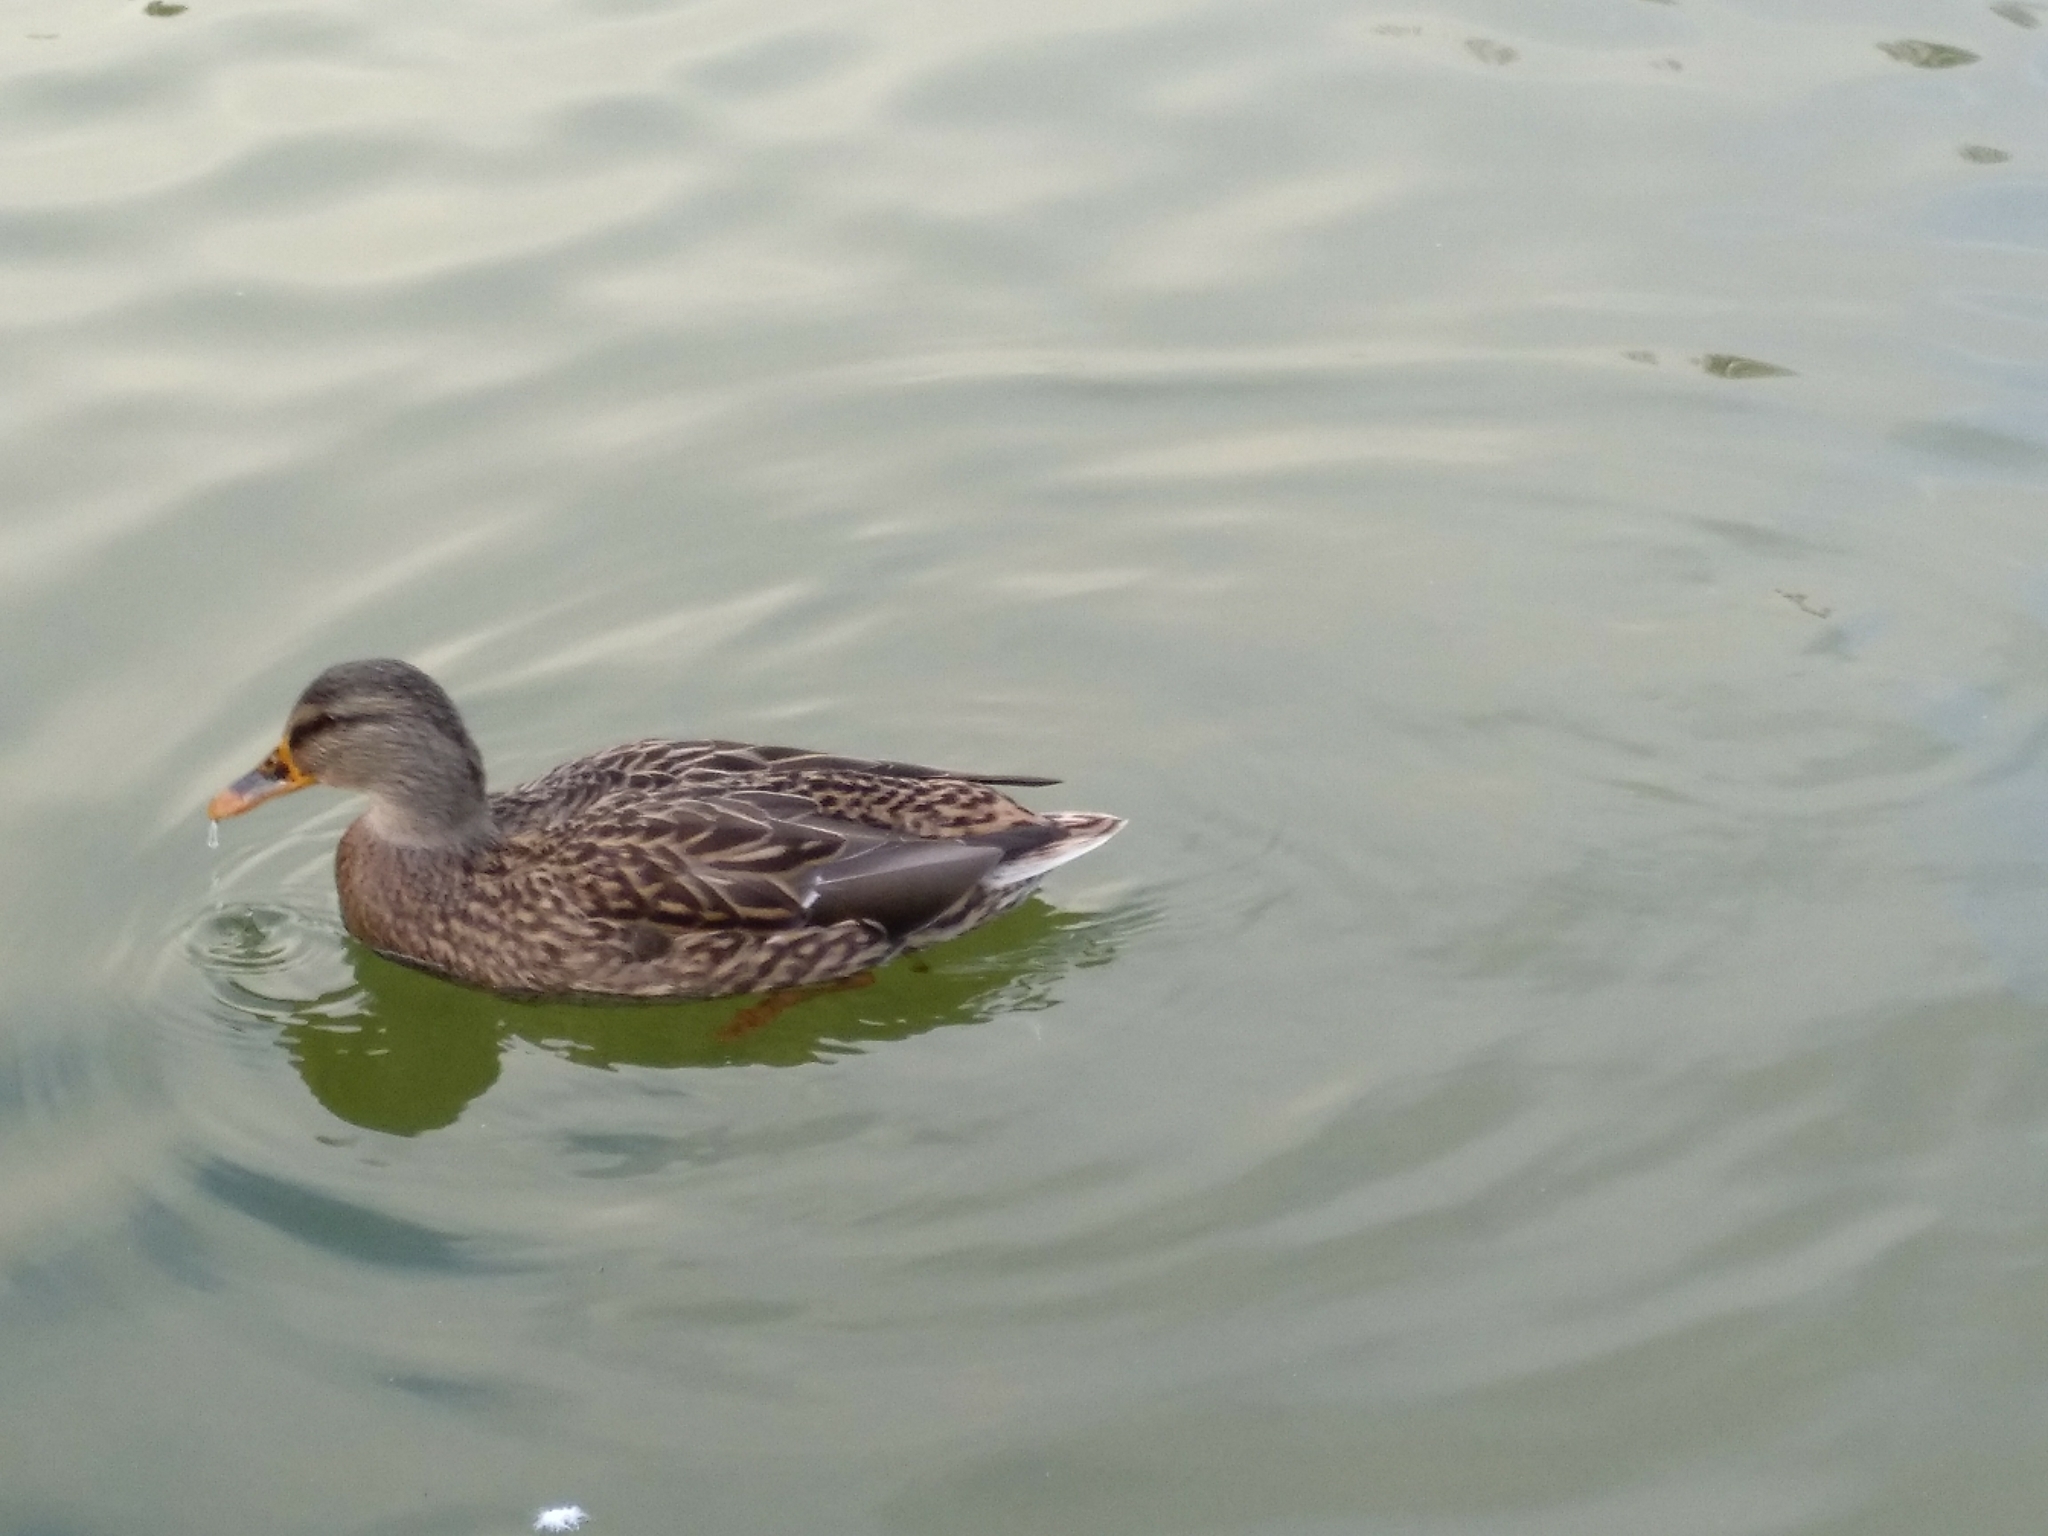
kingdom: Animalia
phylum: Chordata
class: Aves
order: Anseriformes
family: Anatidae
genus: Anas
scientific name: Anas platyrhynchos
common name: Mallard
